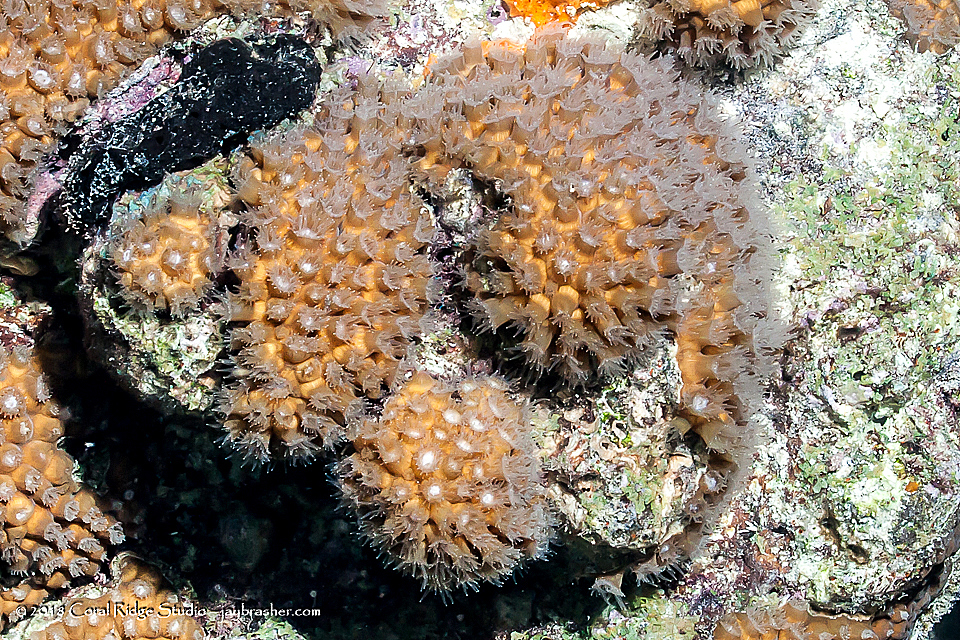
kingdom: Animalia
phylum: Cnidaria
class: Anthozoa
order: Scleractinia
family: Montastraeidae
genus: Montastraea
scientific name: Montastraea cavernosa
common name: Great star coral
